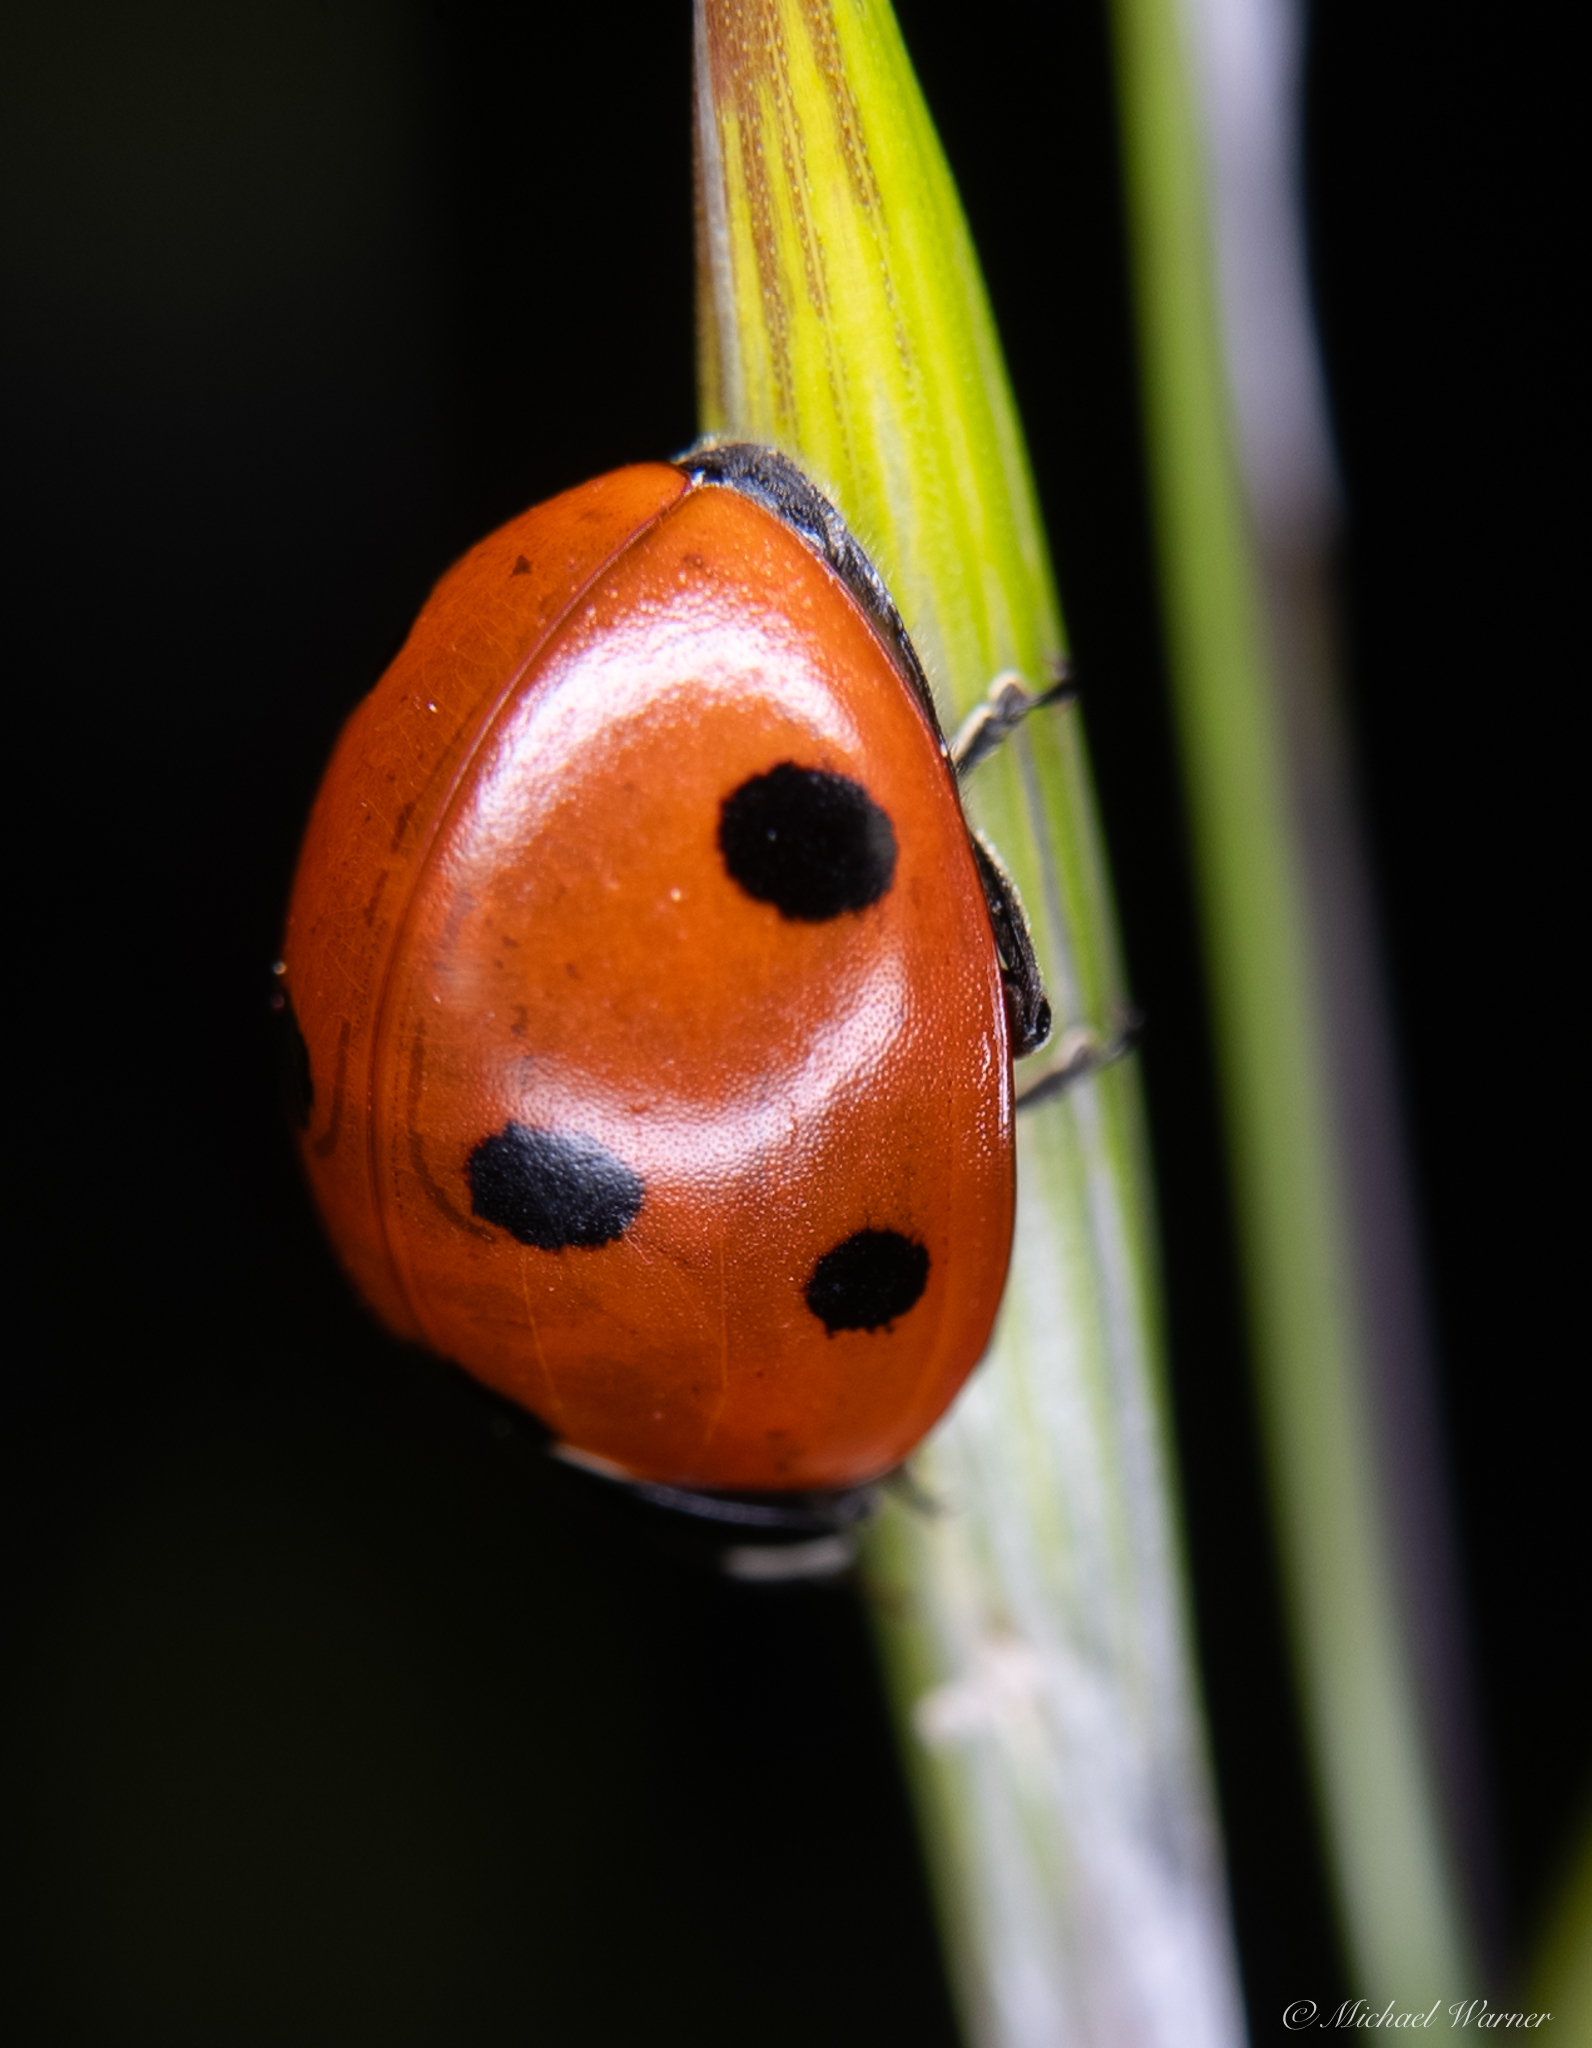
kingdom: Animalia
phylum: Arthropoda
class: Insecta
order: Coleoptera
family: Coccinellidae
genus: Coccinella
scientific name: Coccinella septempunctata
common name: Sevenspotted lady beetle
